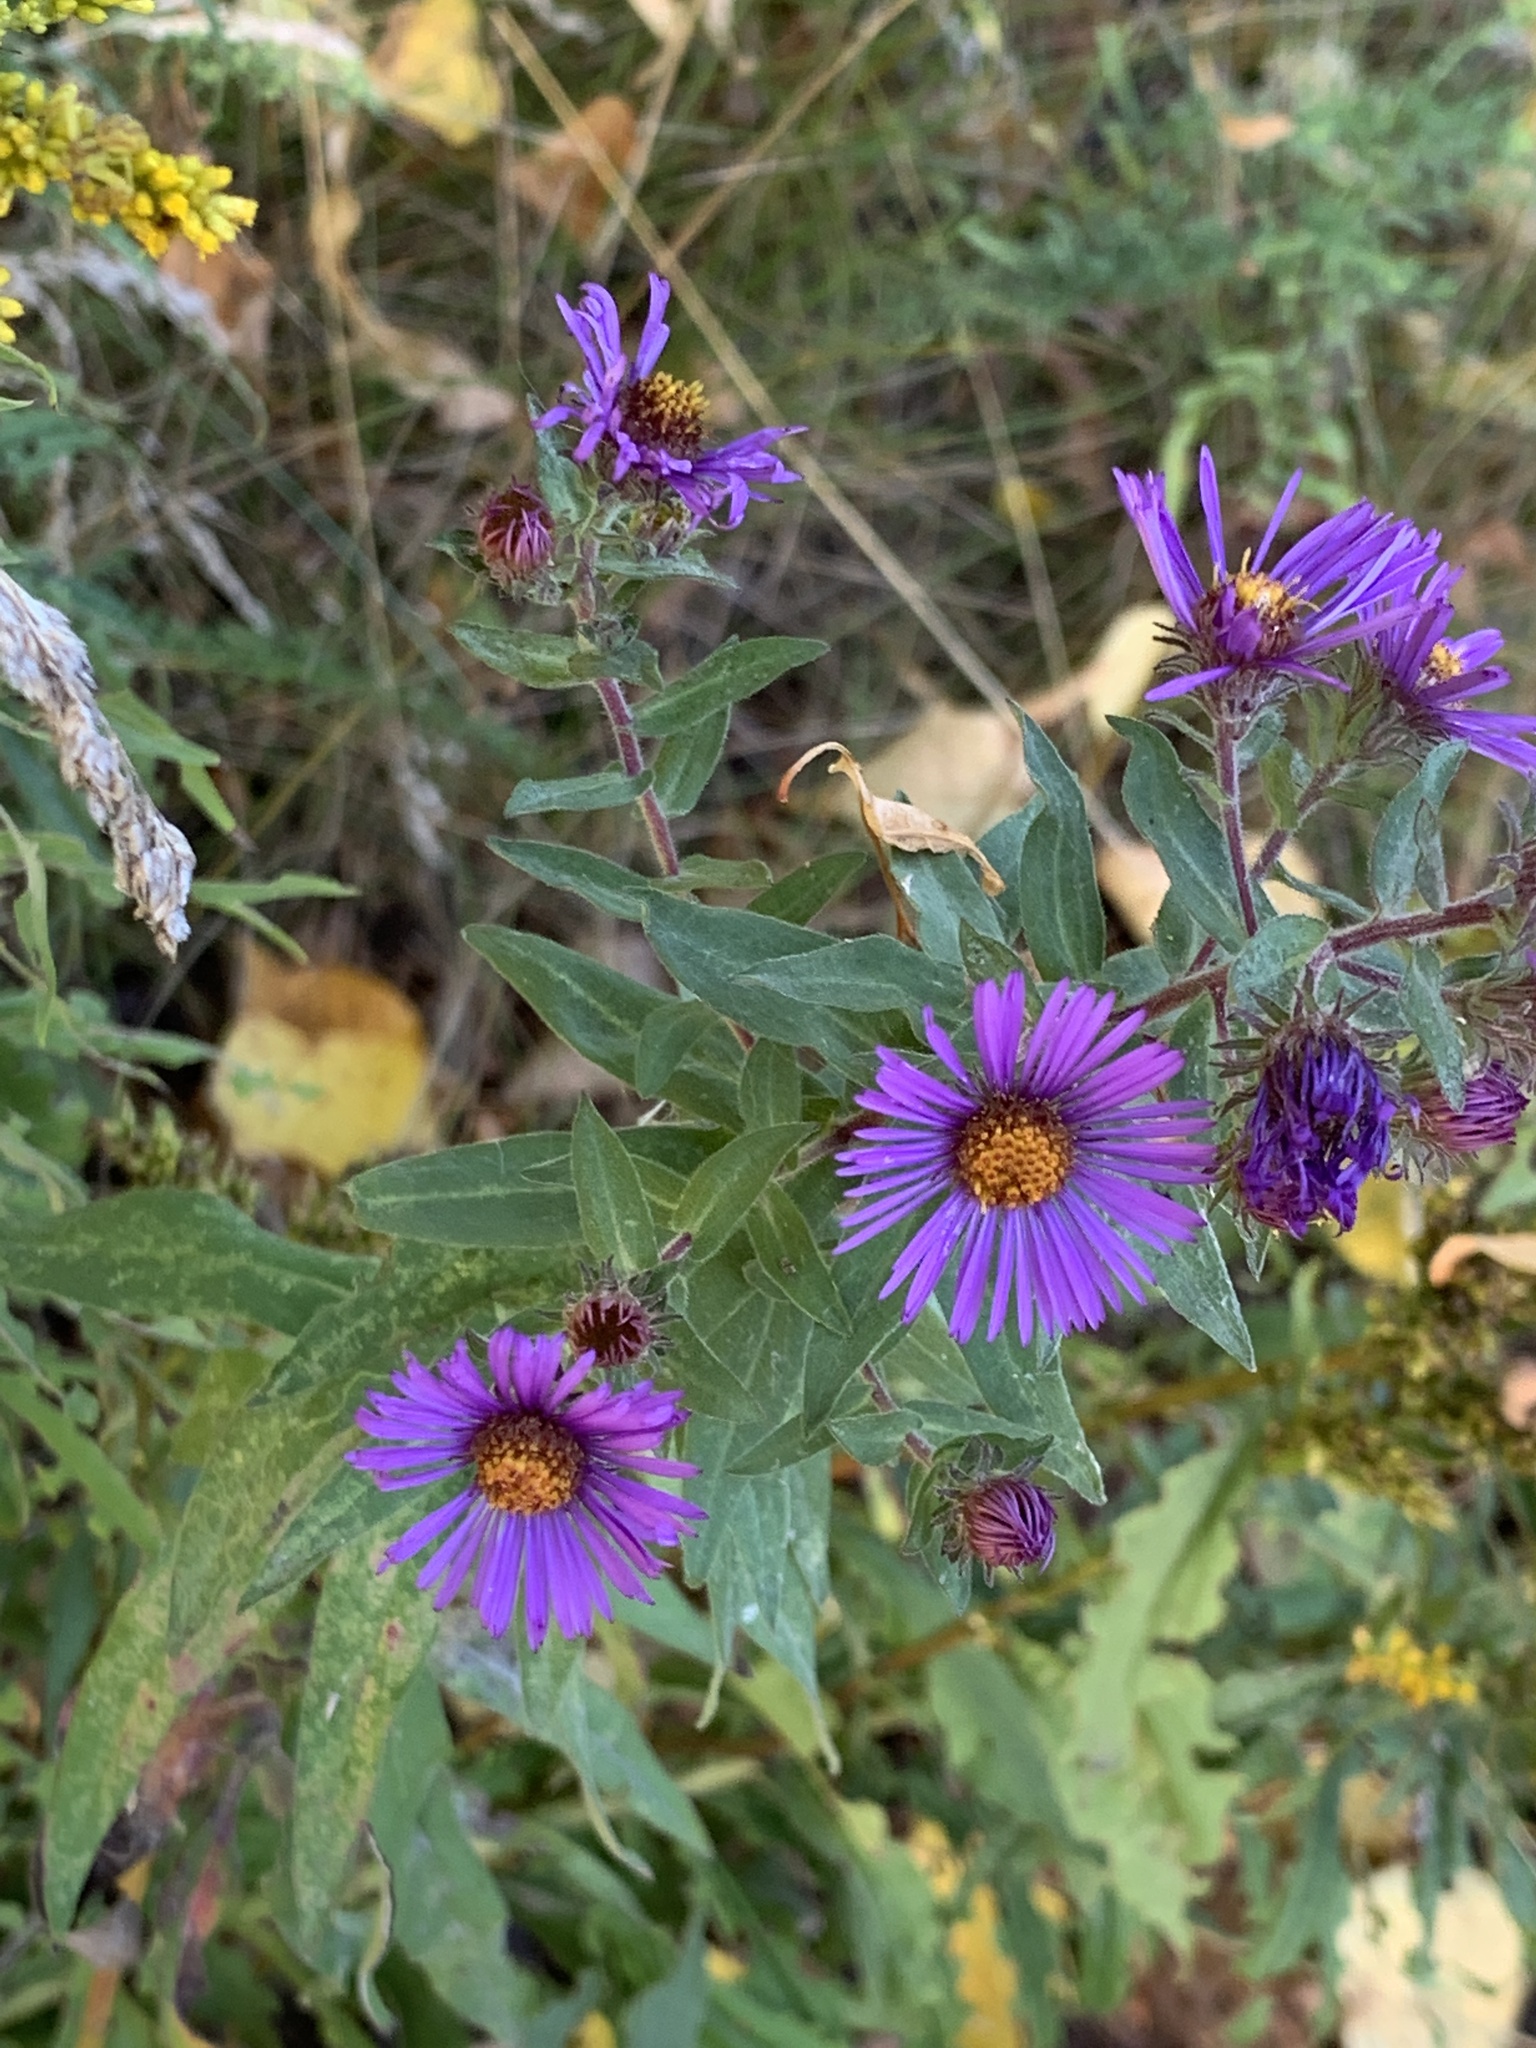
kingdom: Plantae
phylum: Tracheophyta
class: Magnoliopsida
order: Asterales
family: Asteraceae
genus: Symphyotrichum
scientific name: Symphyotrichum novae-angliae
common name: Michaelmas daisy
